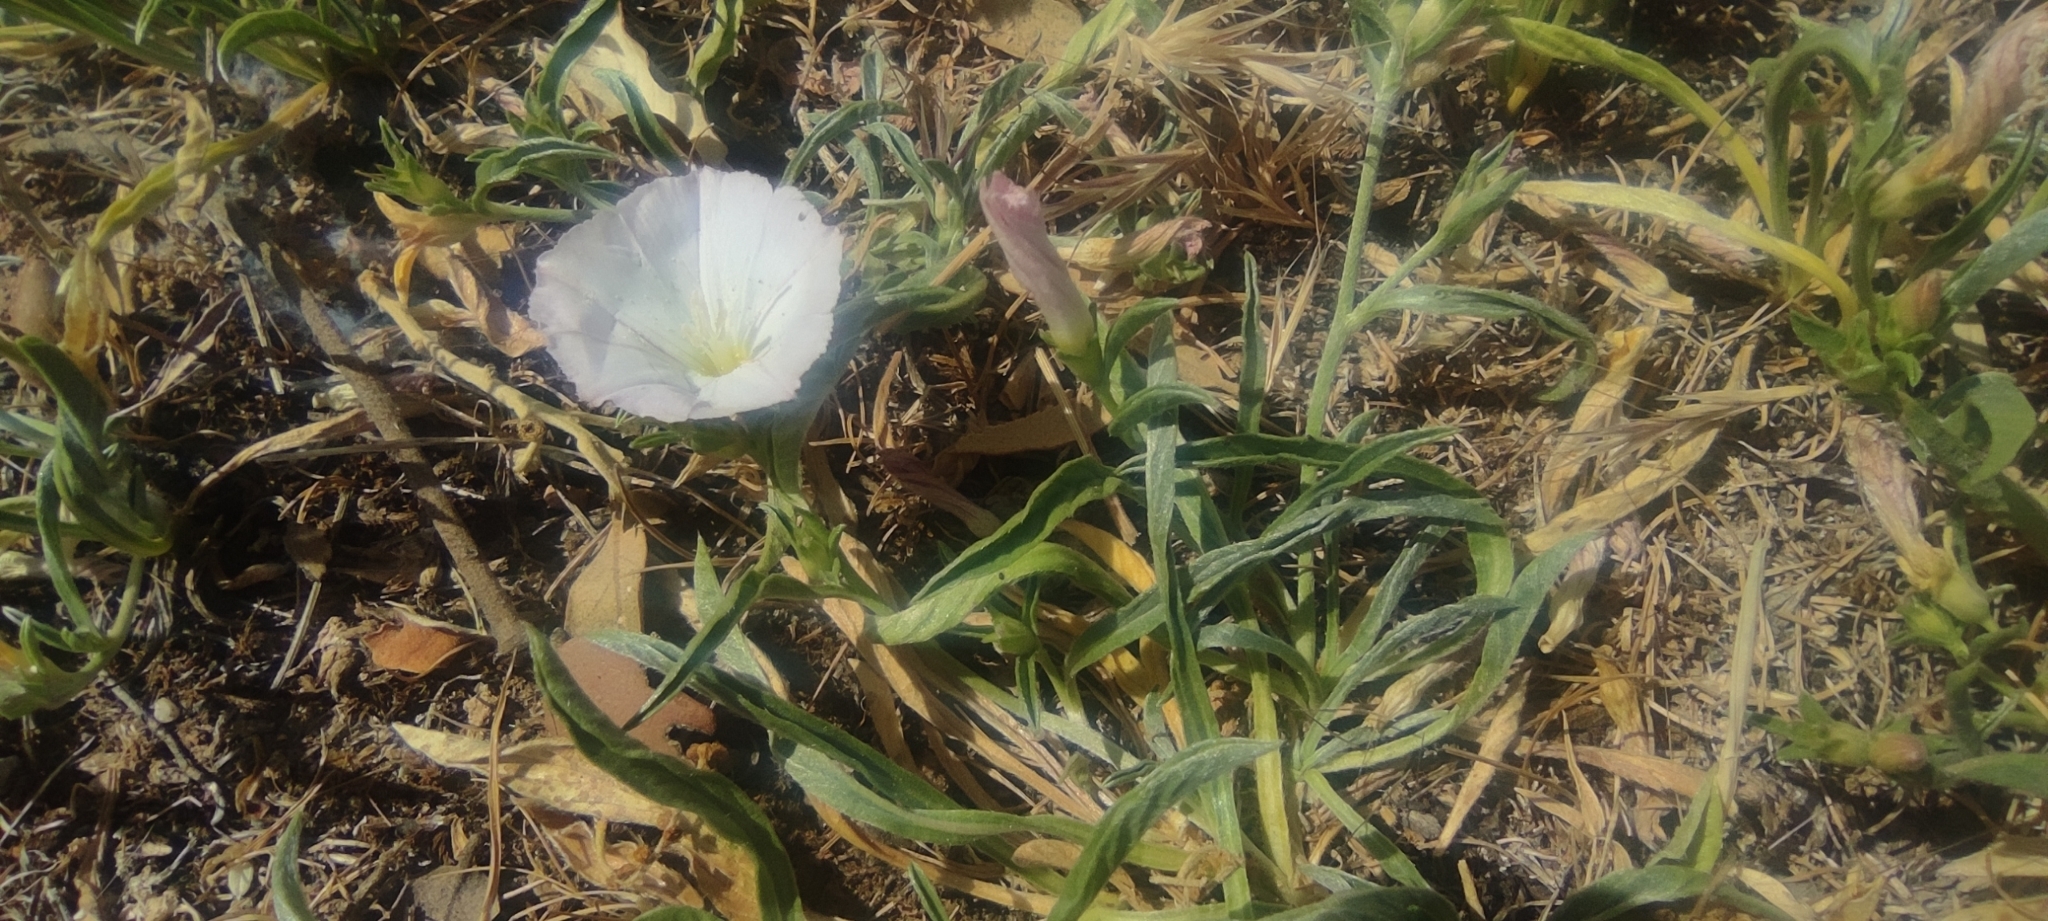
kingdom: Plantae
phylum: Tracheophyta
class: Magnoliopsida
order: Solanales
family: Convolvulaceae
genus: Convolvulus
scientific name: Convolvulus lineatus
